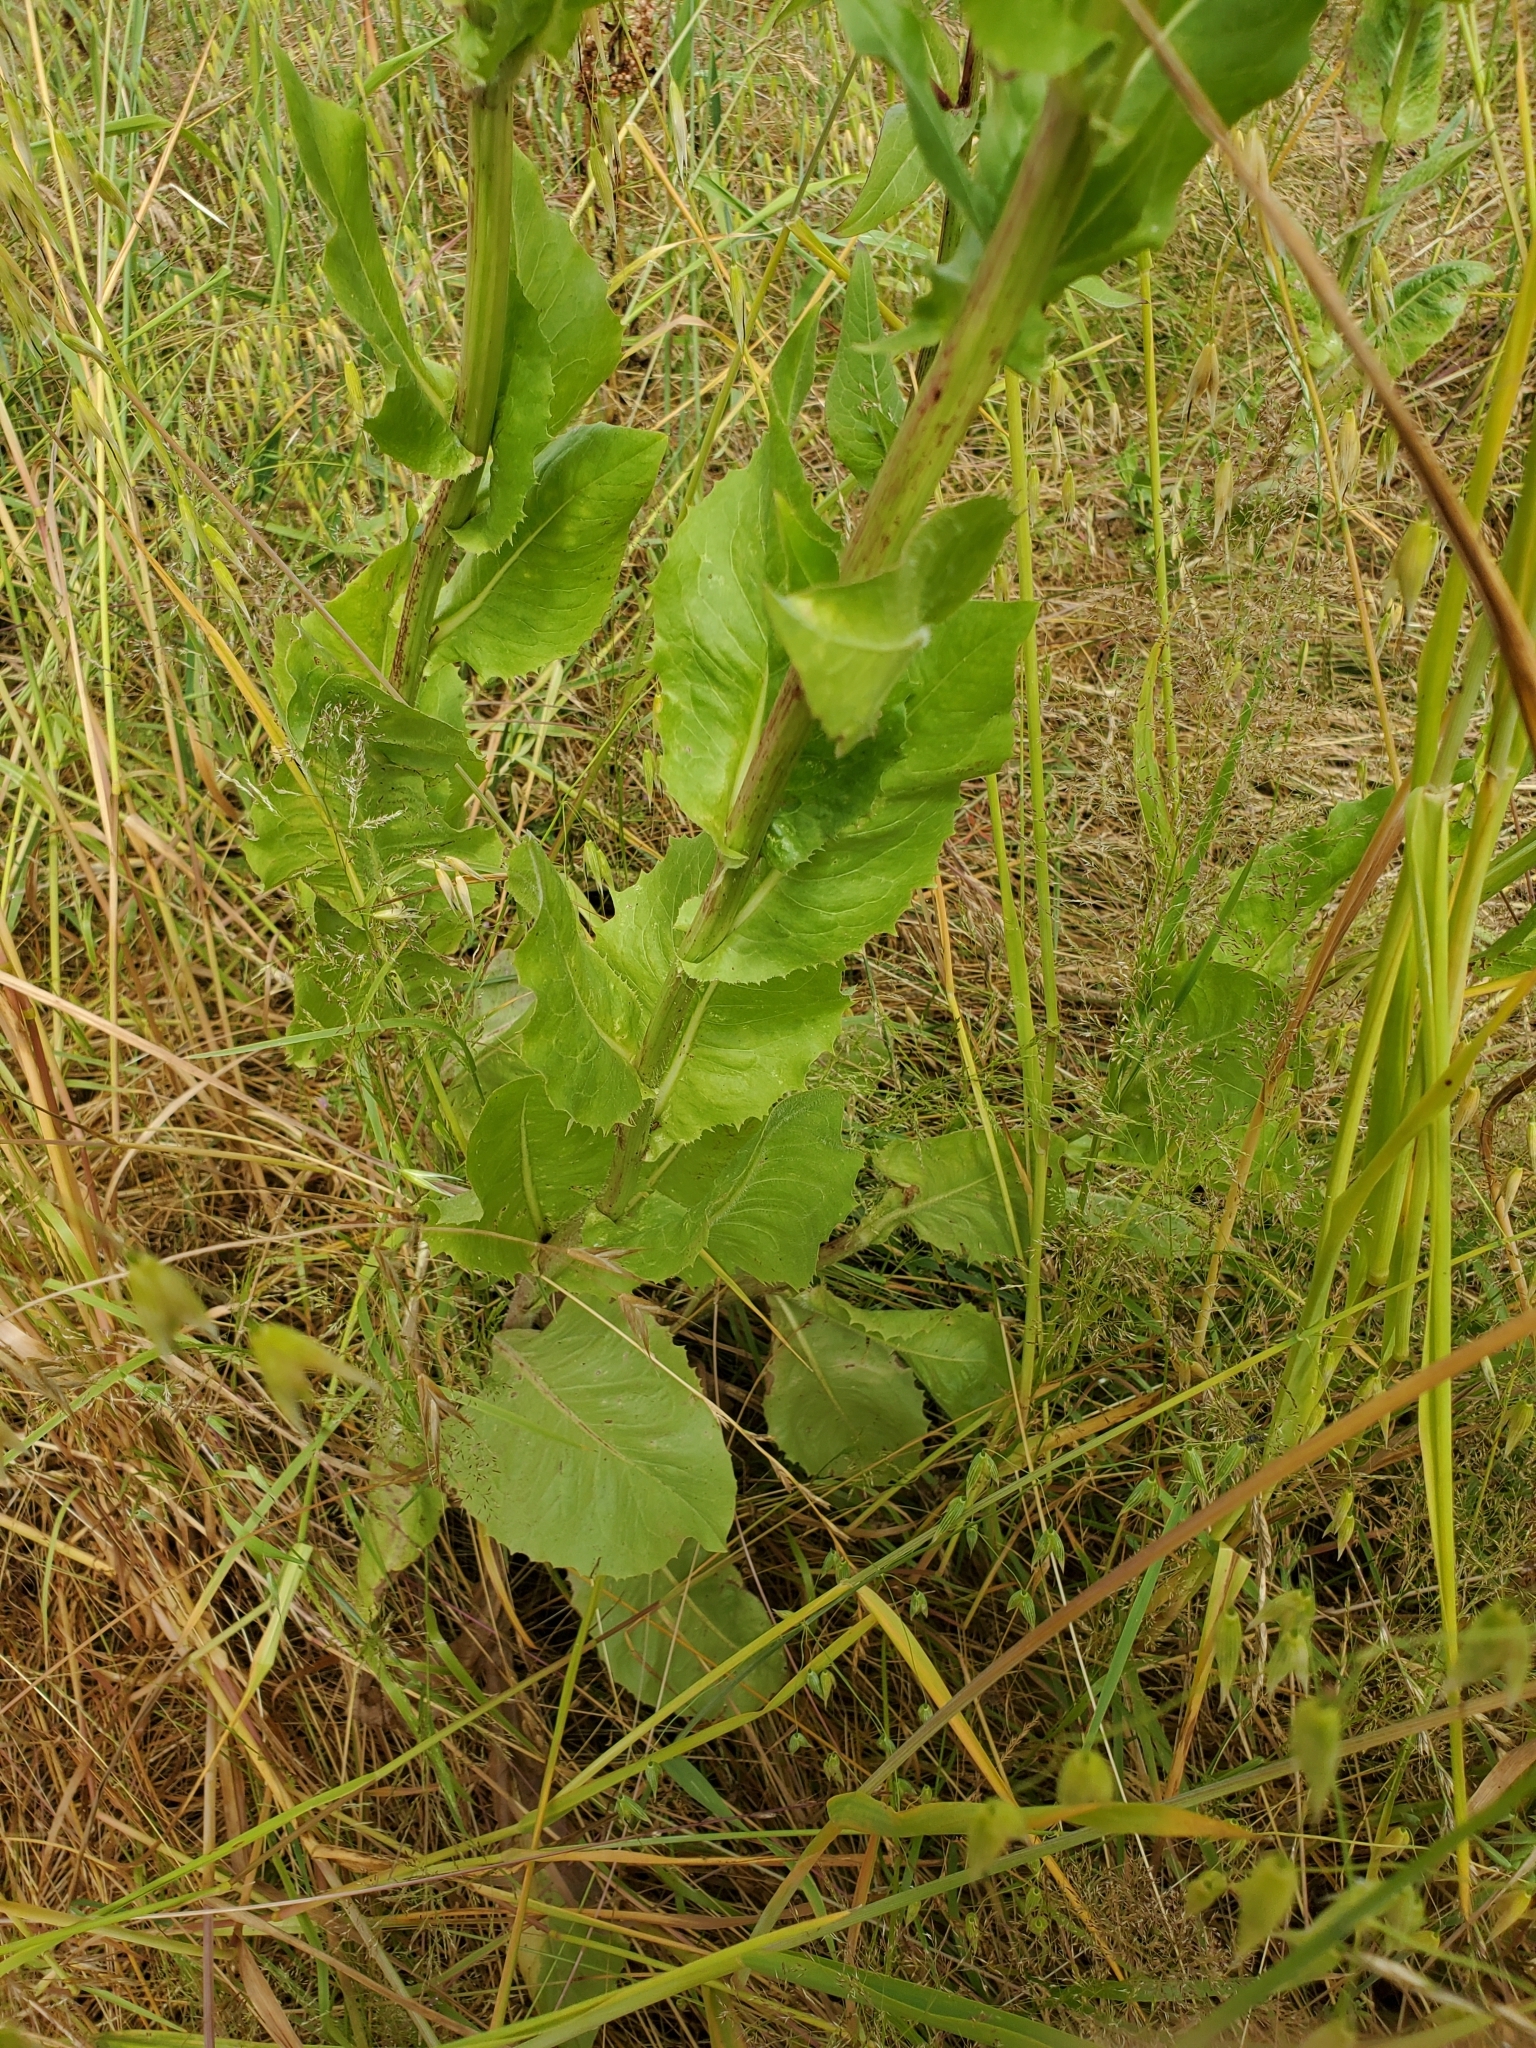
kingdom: Plantae
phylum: Tracheophyta
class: Magnoliopsida
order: Asterales
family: Asteraceae
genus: Cichorium
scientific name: Cichorium intybus
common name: Chicory
